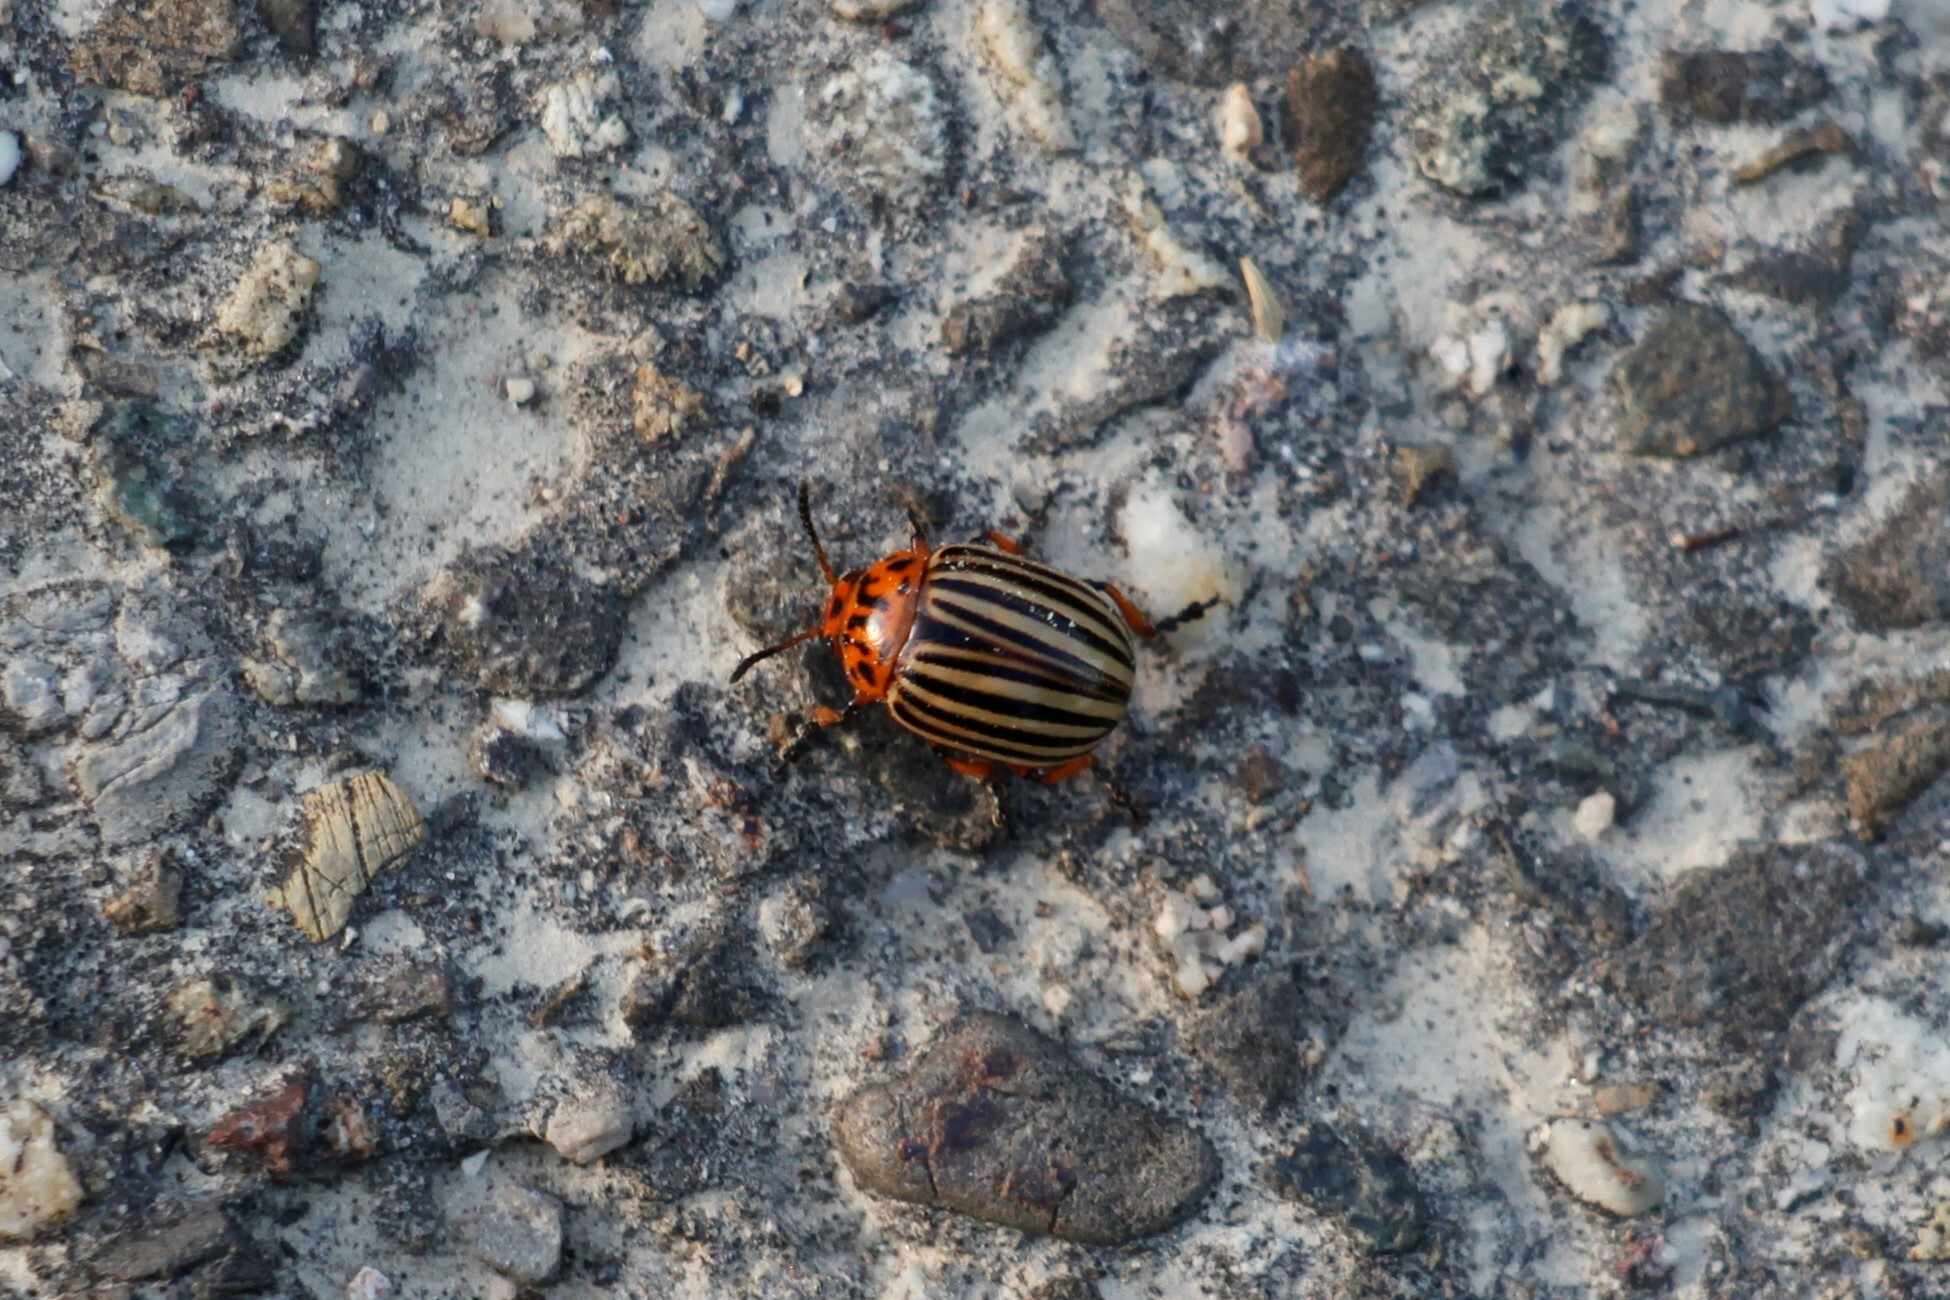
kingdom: Animalia
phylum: Arthropoda
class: Insecta
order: Coleoptera
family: Chrysomelidae
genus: Leptinotarsa
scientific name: Leptinotarsa decemlineata
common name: Colorado potato beetle
